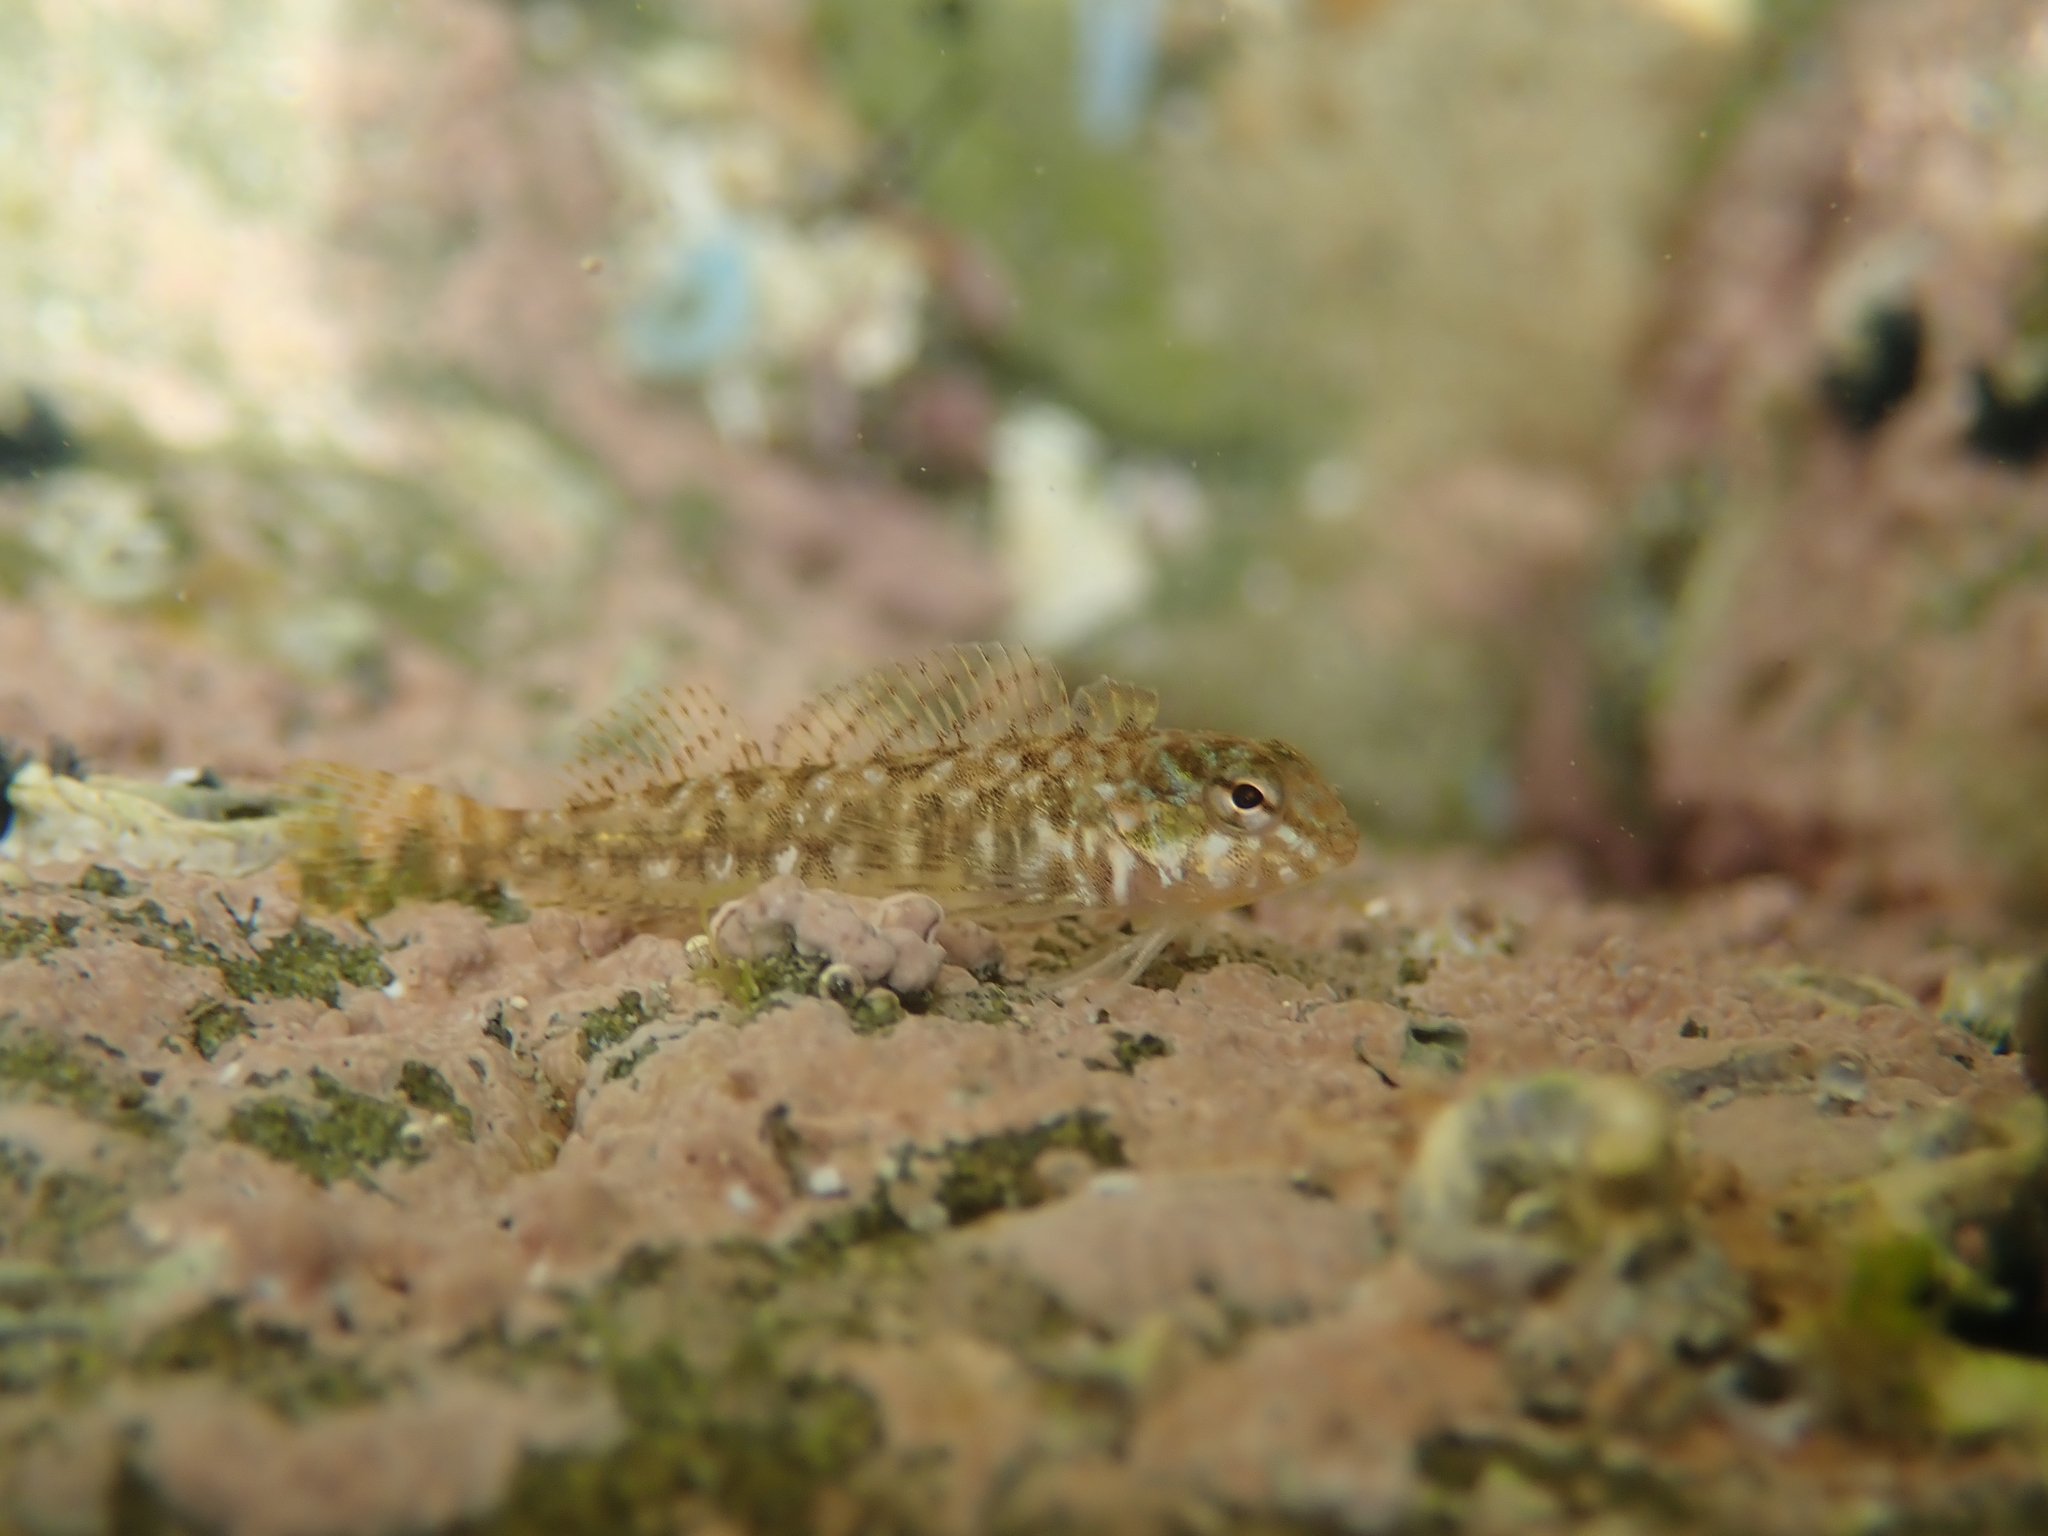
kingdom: Animalia
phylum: Chordata
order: Perciformes
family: Tripterygiidae
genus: Bellapiscis
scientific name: Bellapiscis medius
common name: Twister
